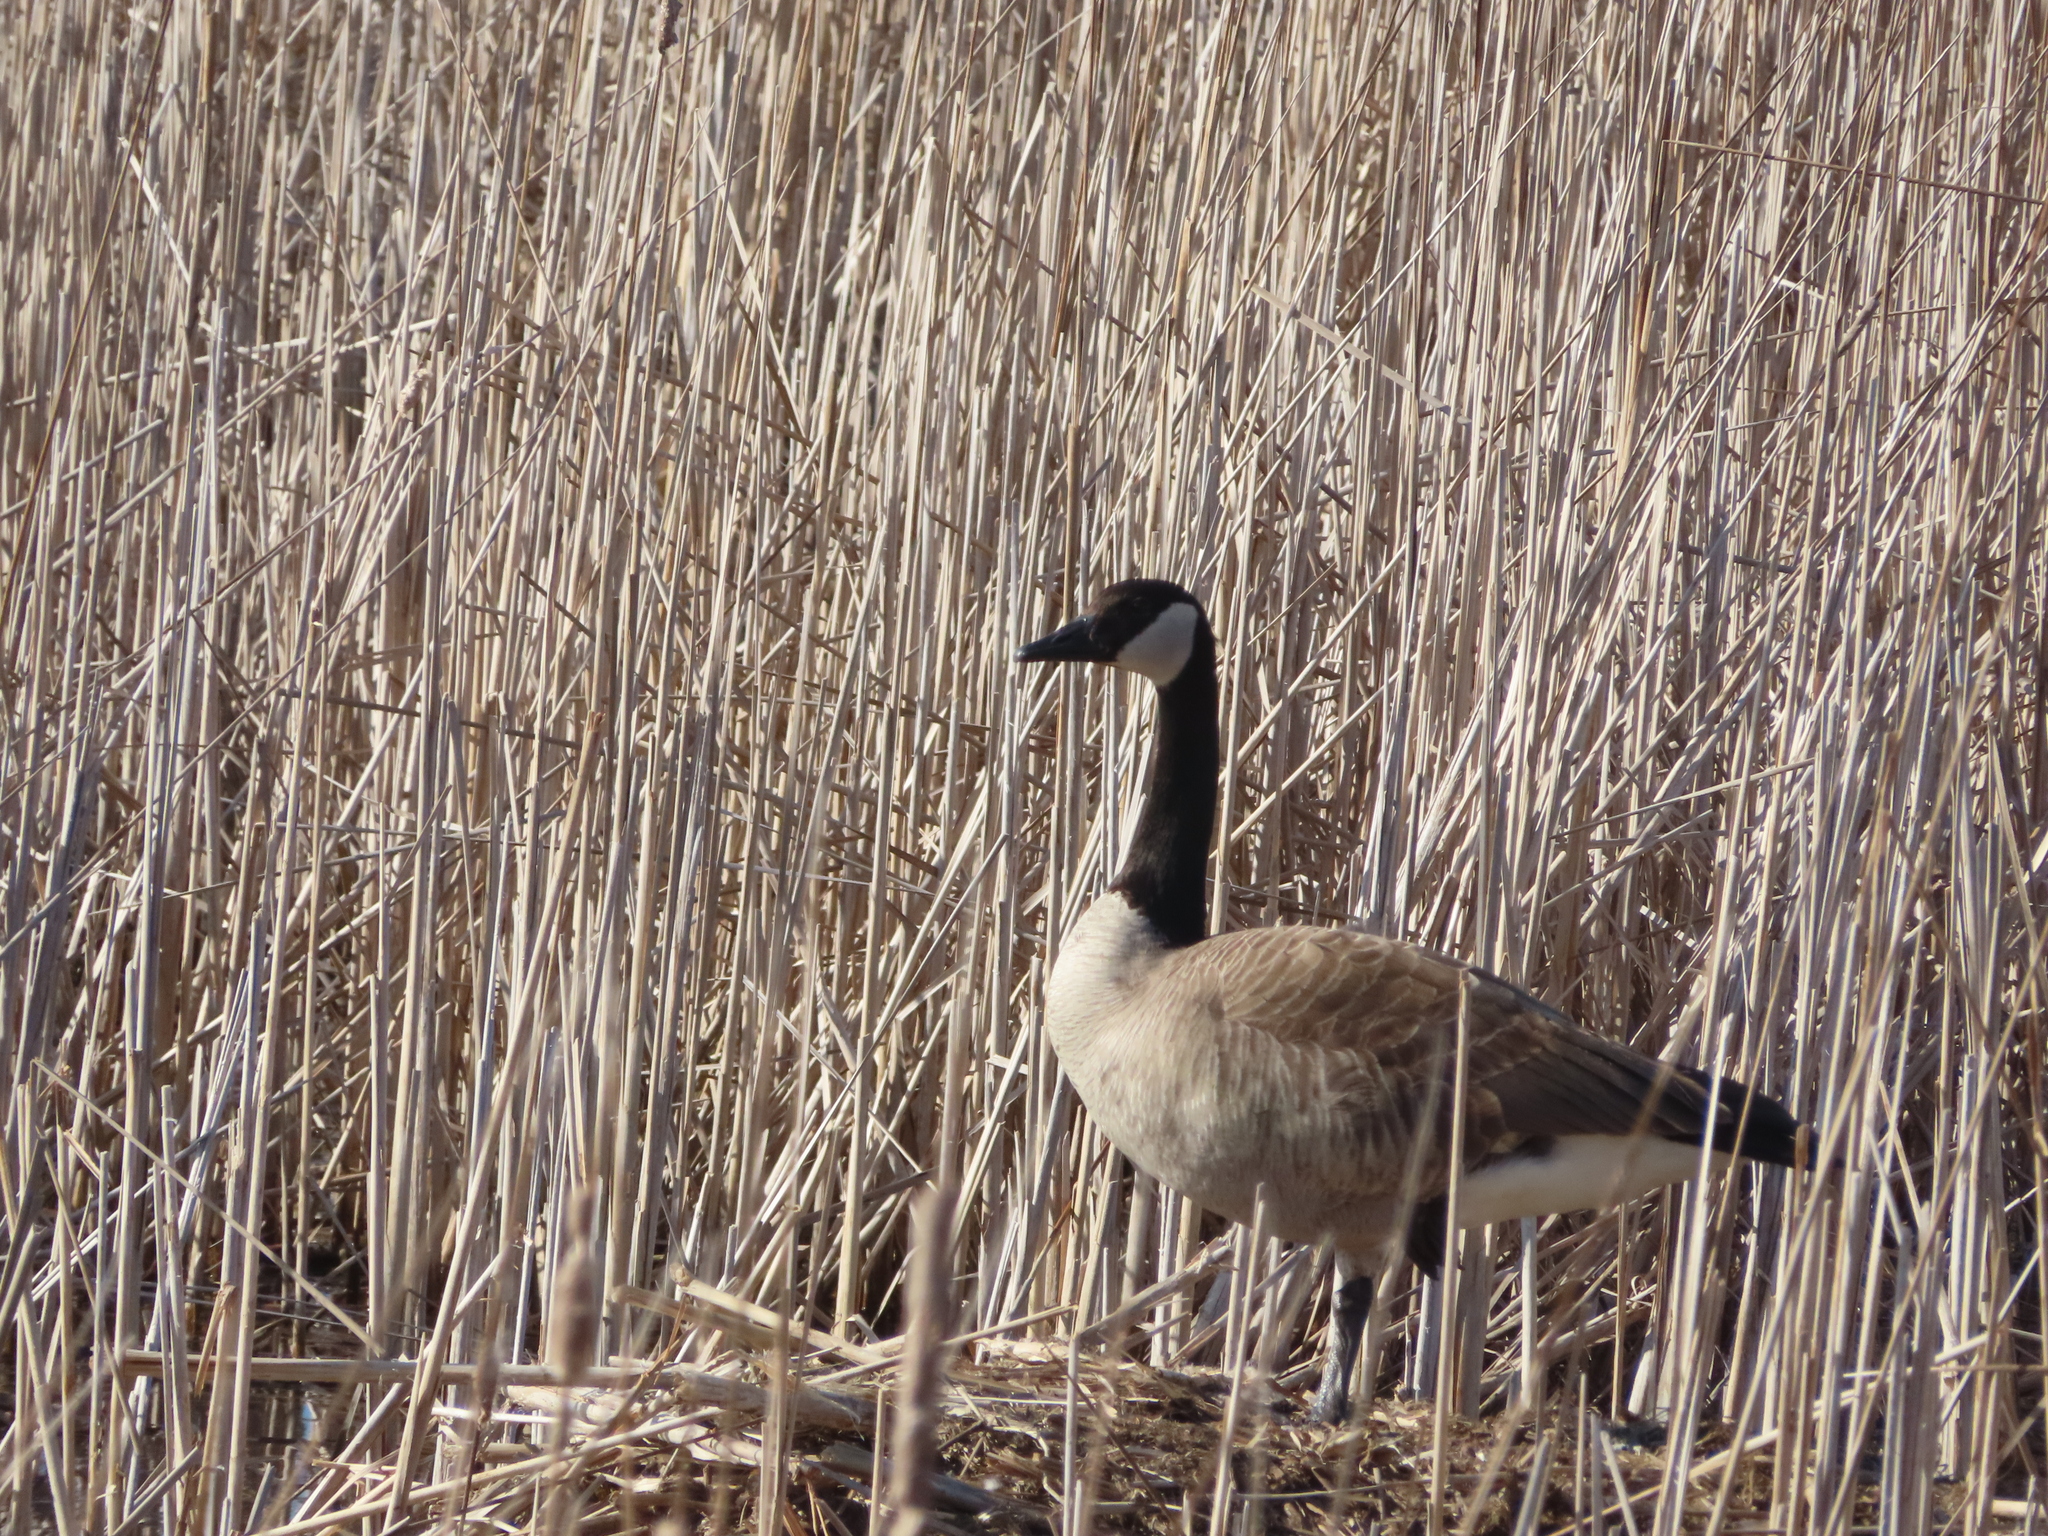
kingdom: Animalia
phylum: Chordata
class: Aves
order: Anseriformes
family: Anatidae
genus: Branta
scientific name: Branta canadensis
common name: Canada goose
